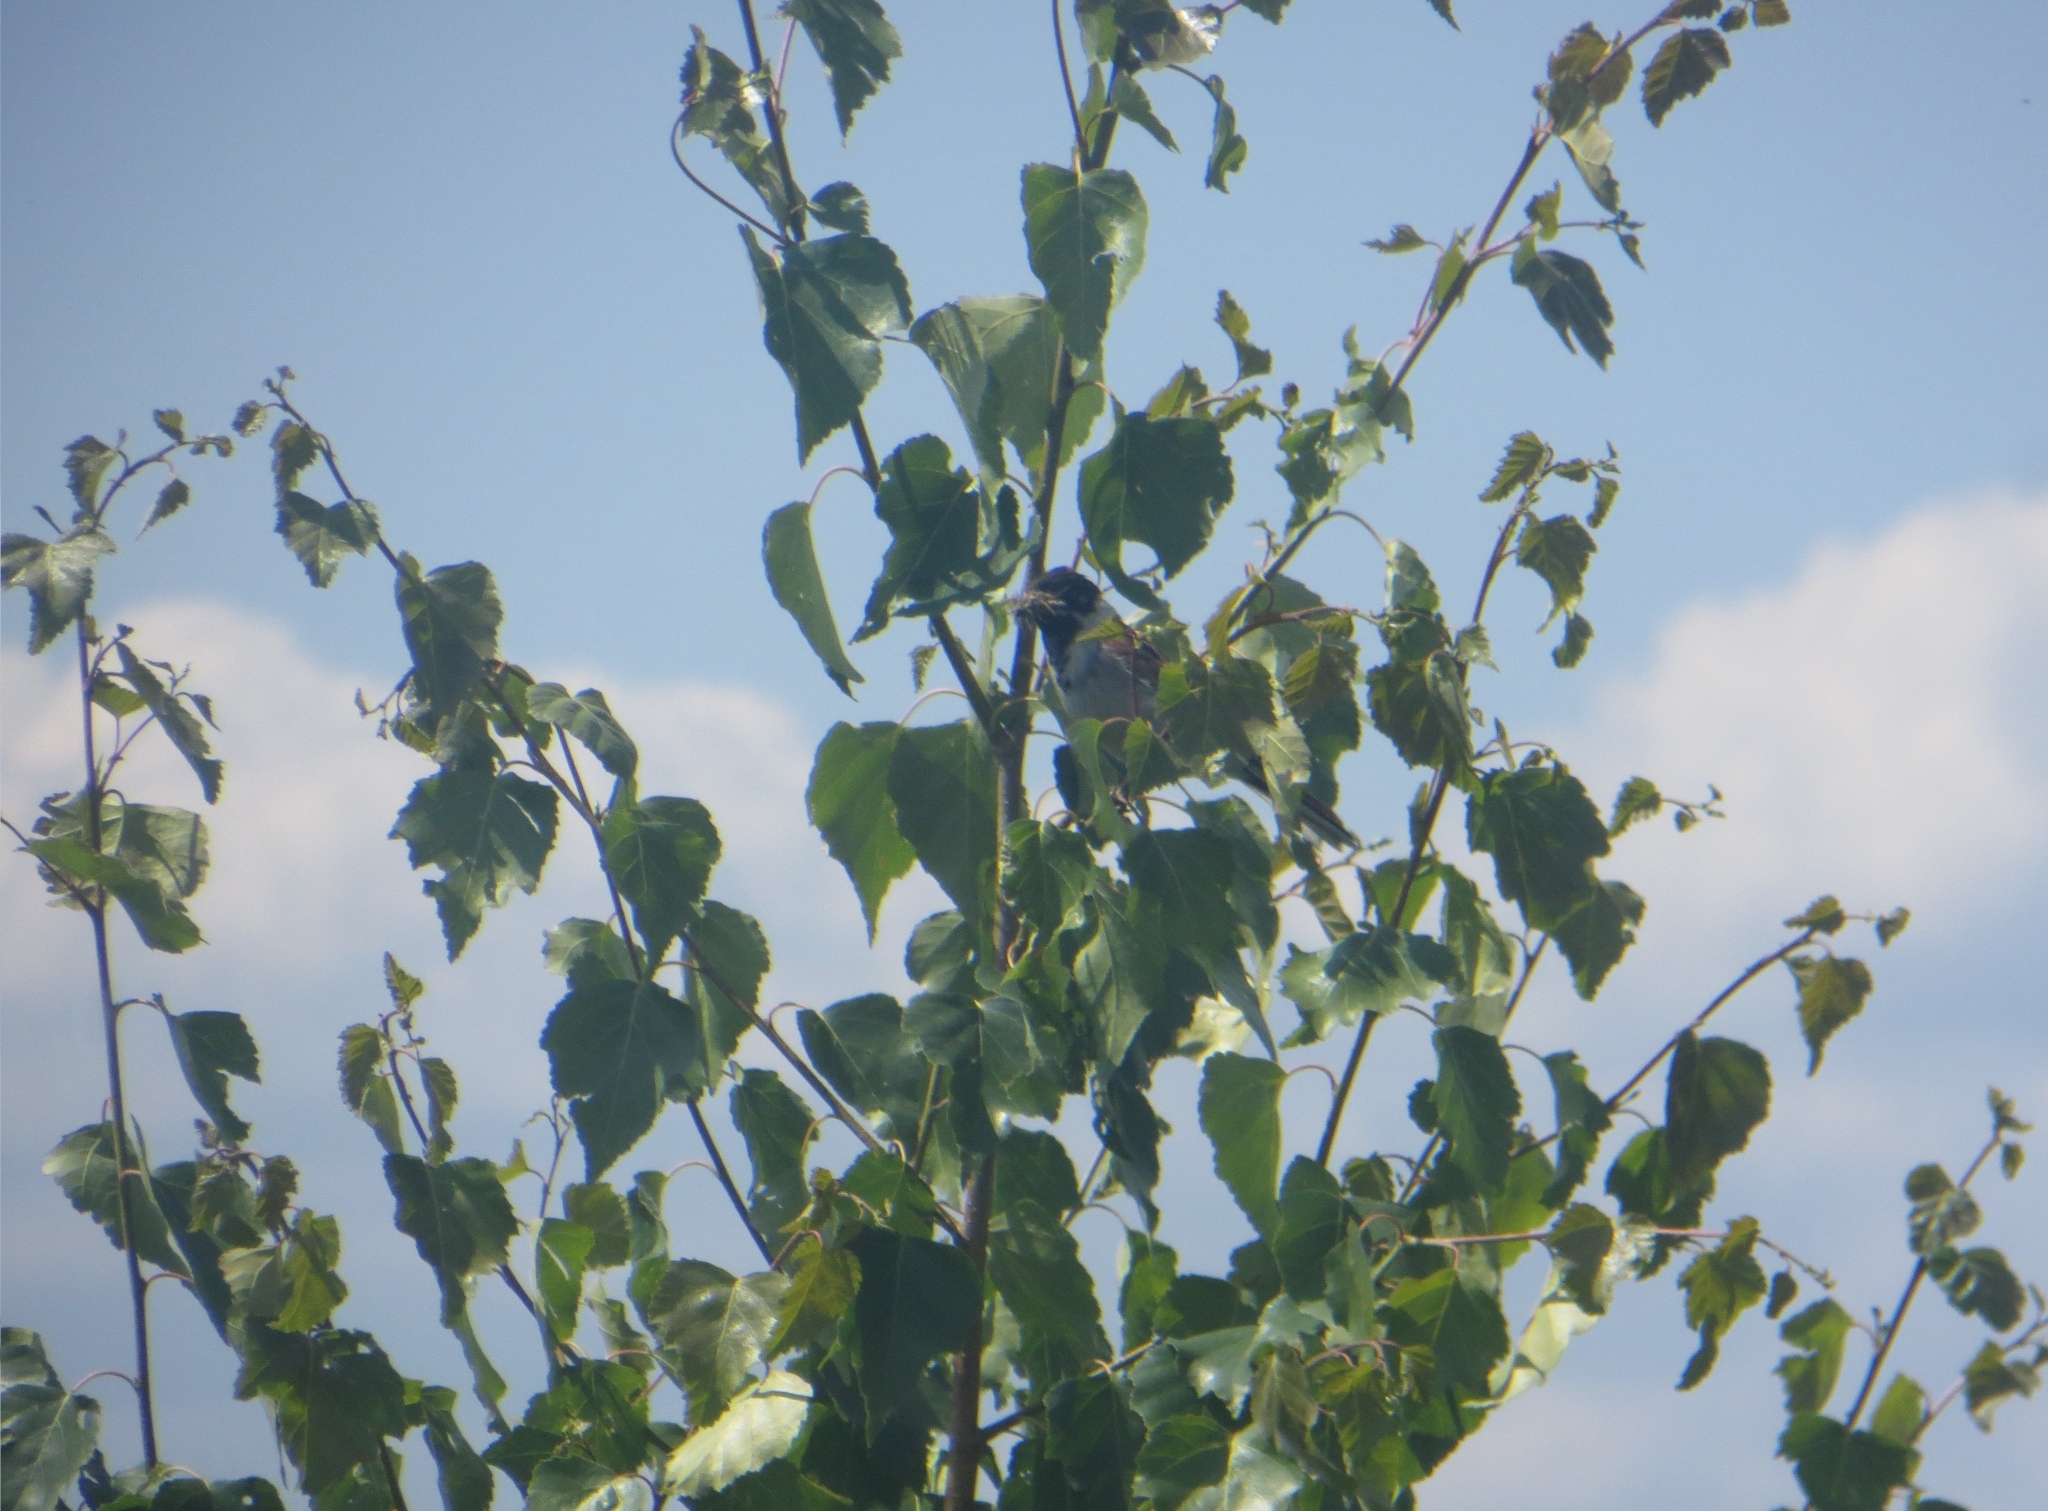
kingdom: Animalia
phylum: Chordata
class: Aves
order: Passeriformes
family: Emberizidae
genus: Emberiza
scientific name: Emberiza schoeniclus
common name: Reed bunting
